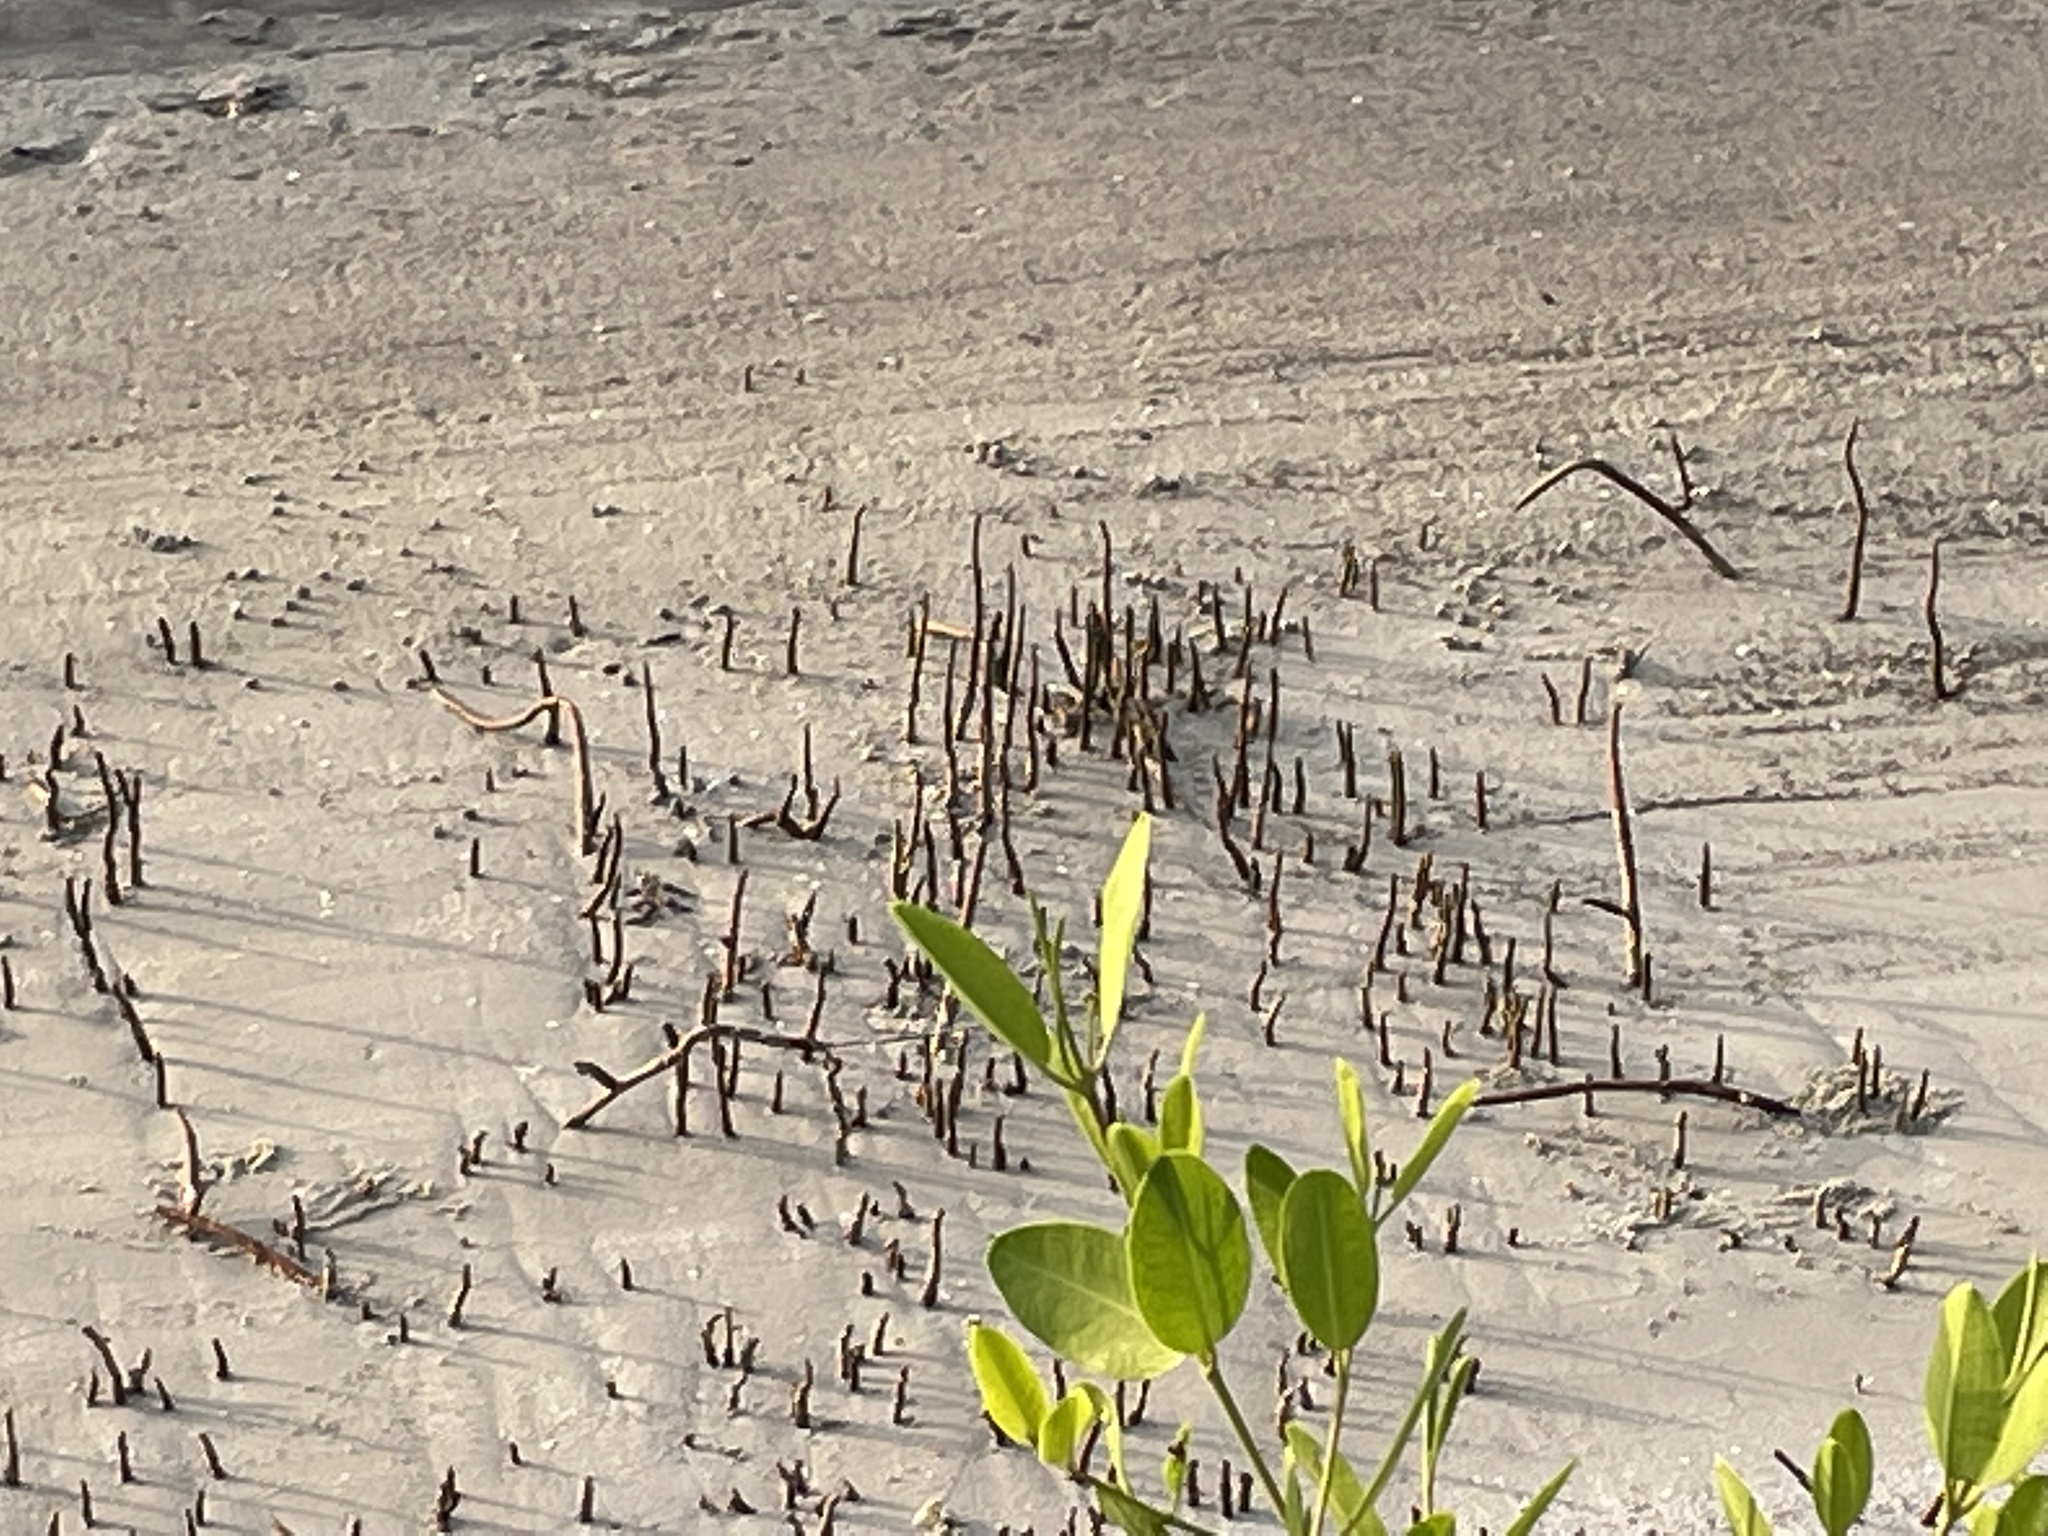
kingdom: Plantae
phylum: Tracheophyta
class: Magnoliopsida
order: Lamiales
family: Acanthaceae
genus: Avicennia
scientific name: Avicennia germinans
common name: Black mangrove
